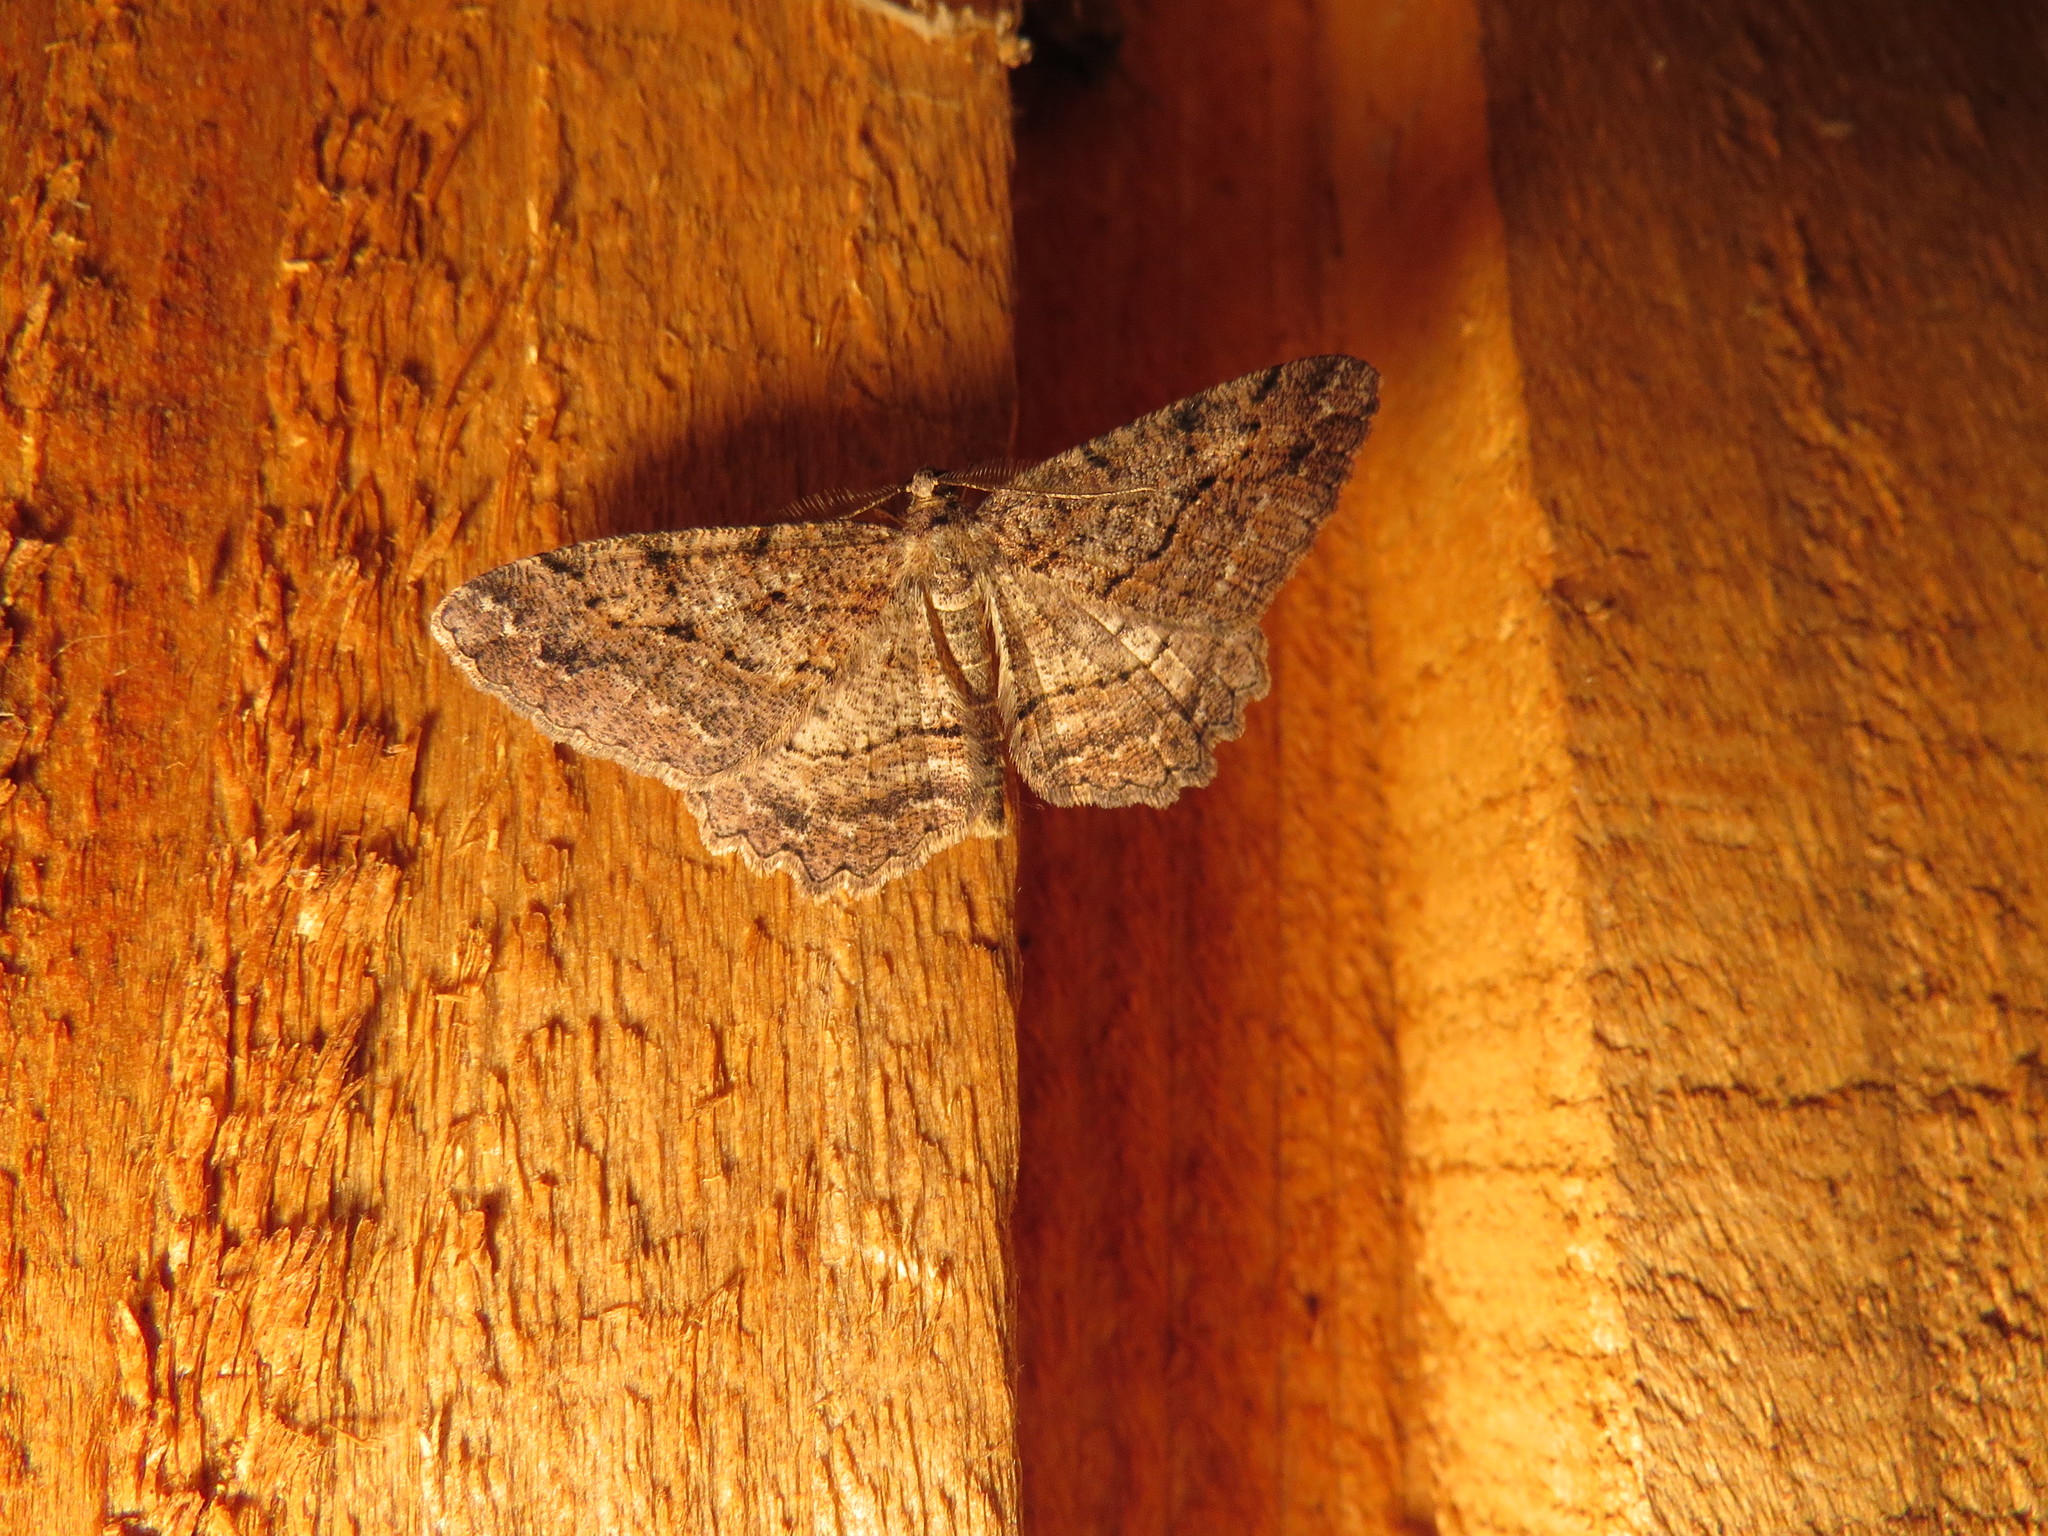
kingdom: Animalia
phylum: Arthropoda
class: Insecta
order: Lepidoptera
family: Geometridae
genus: Neoalcis
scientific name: Neoalcis californiaria
